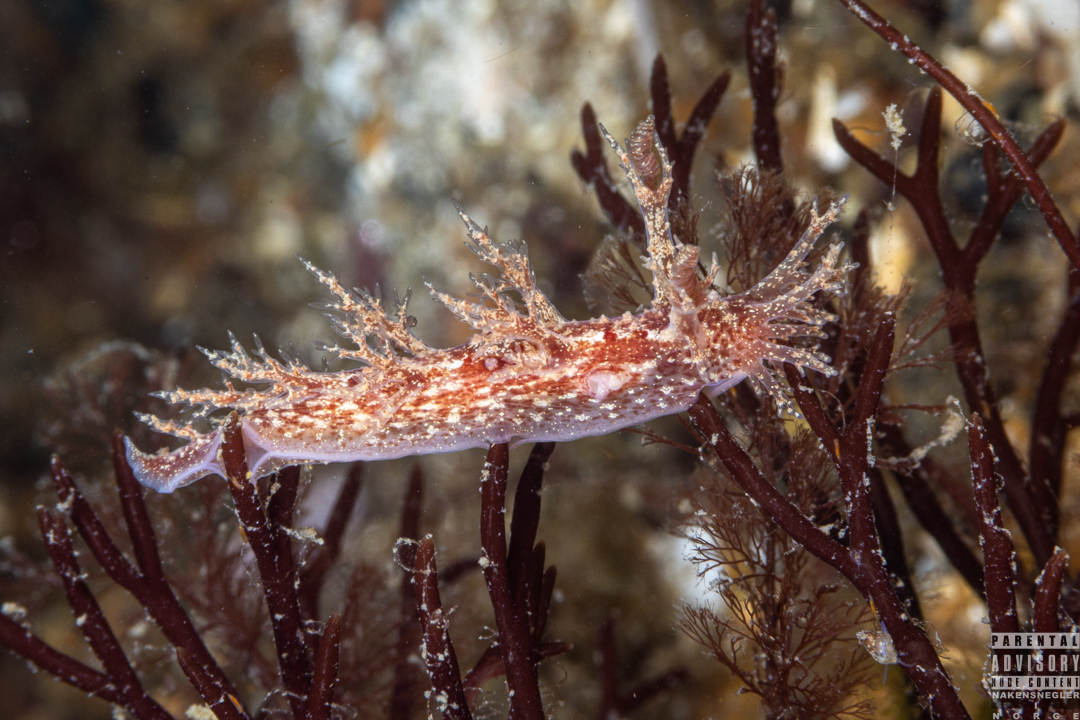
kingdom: Animalia
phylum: Mollusca
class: Gastropoda
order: Nudibranchia
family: Dendronotidae
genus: Dendronotus
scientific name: Dendronotus frondosus
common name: Bushy-backed nudibranch
